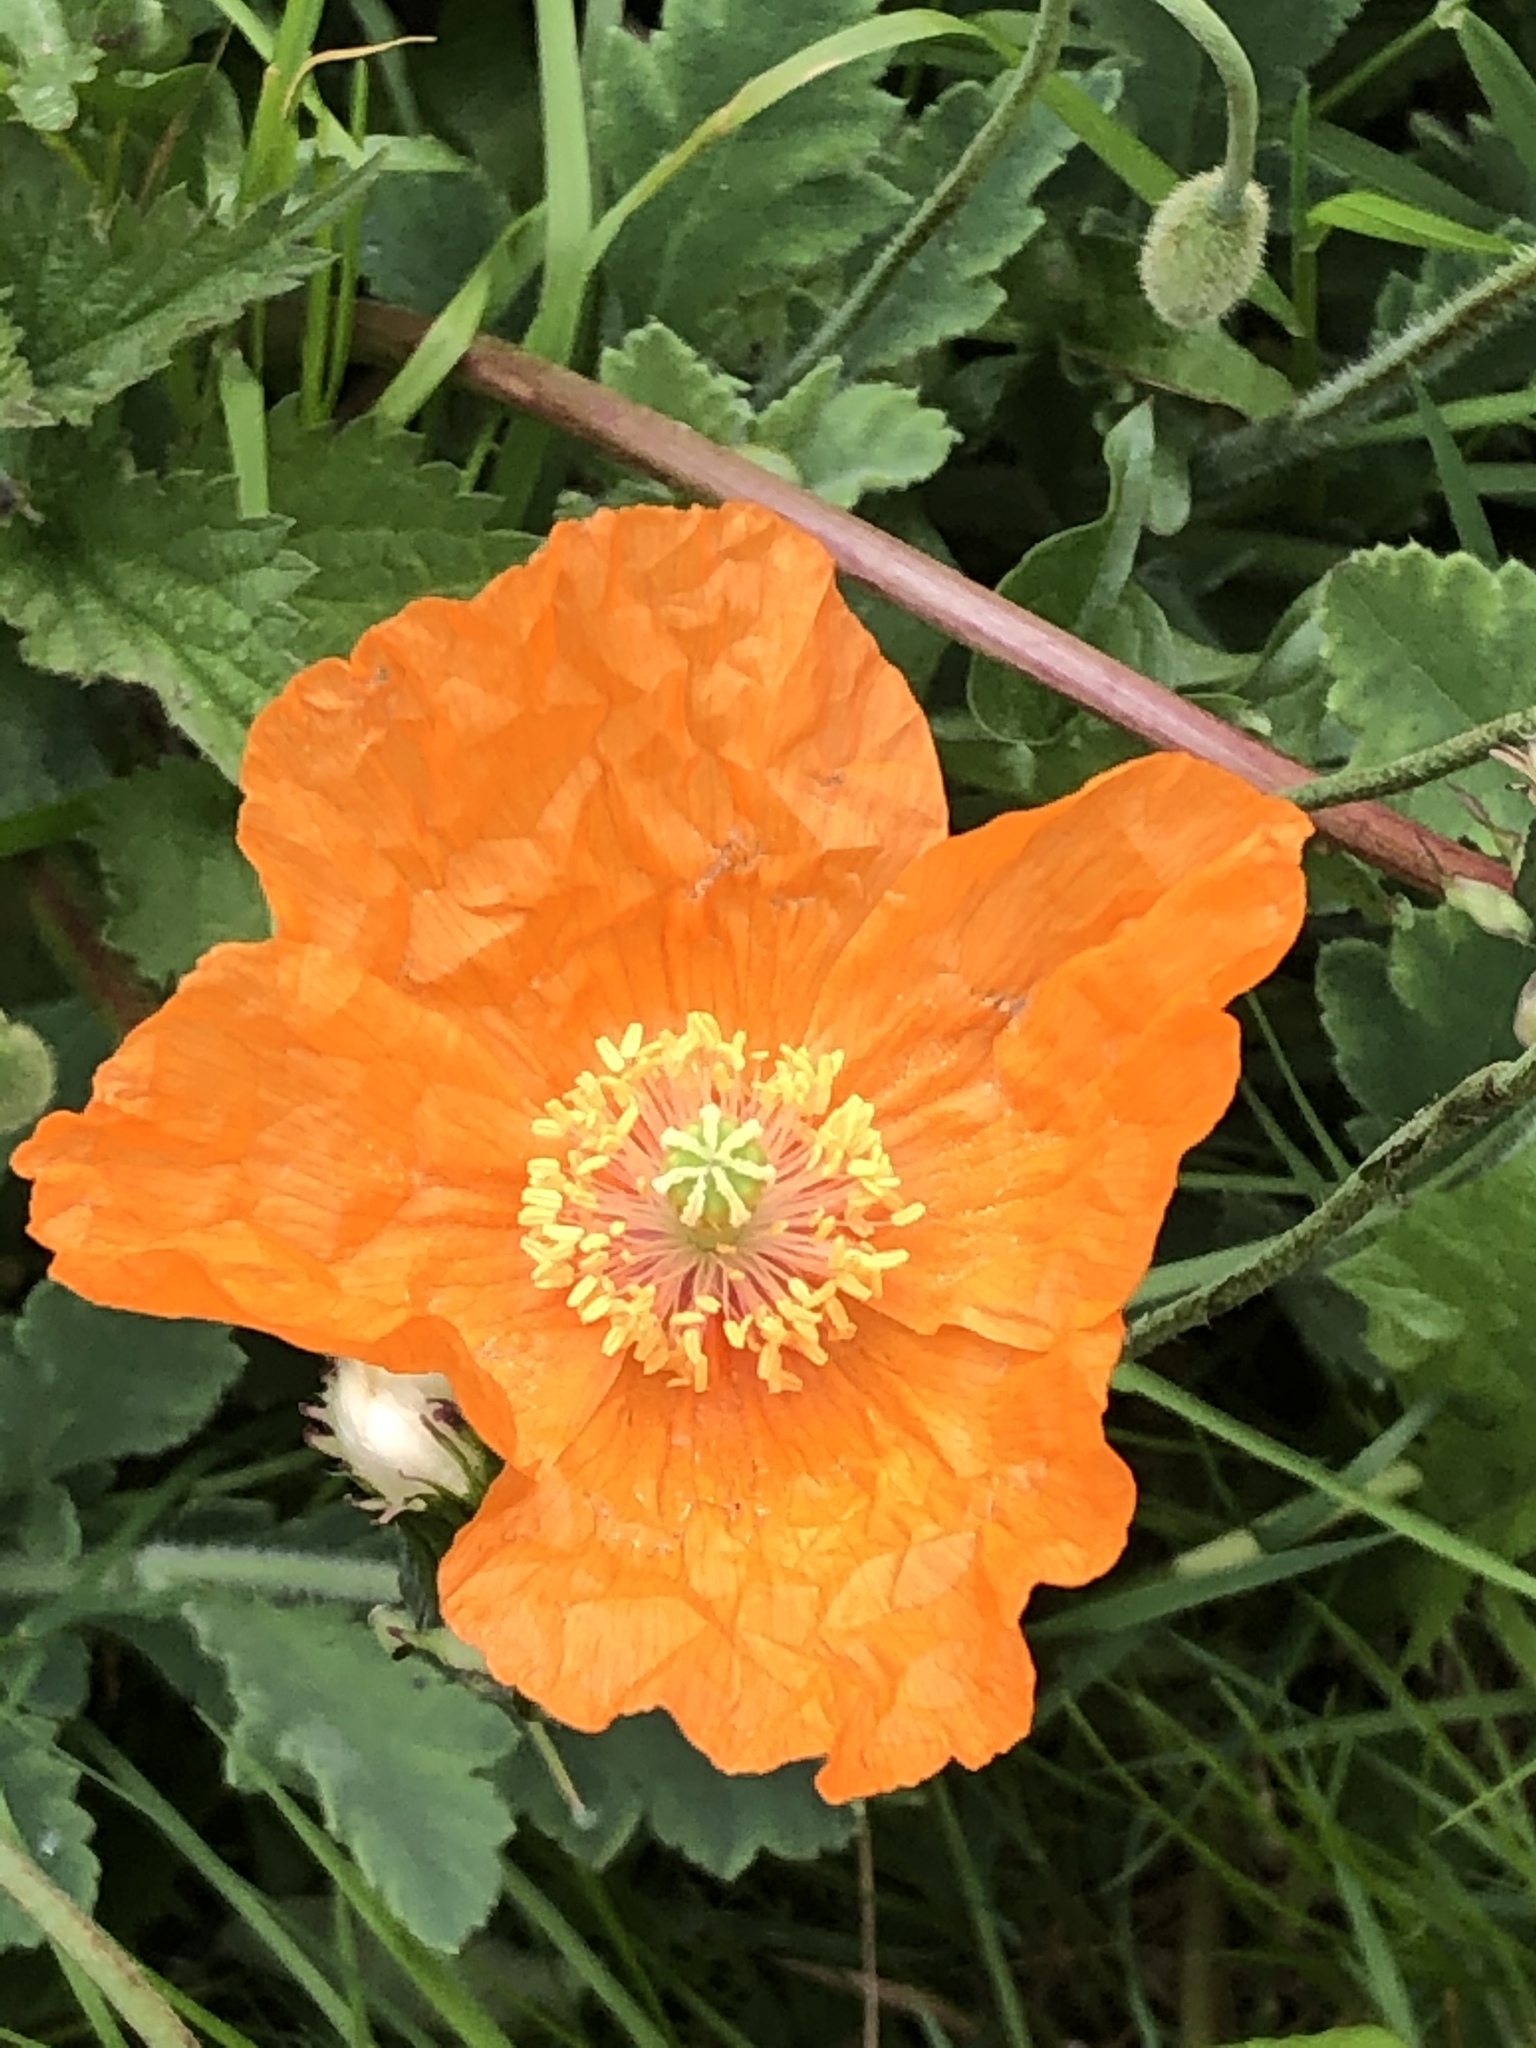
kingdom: Plantae
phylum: Tracheophyta
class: Magnoliopsida
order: Ranunculales
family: Papaveraceae
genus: Papaver
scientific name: Papaver cambricum
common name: Poppy
